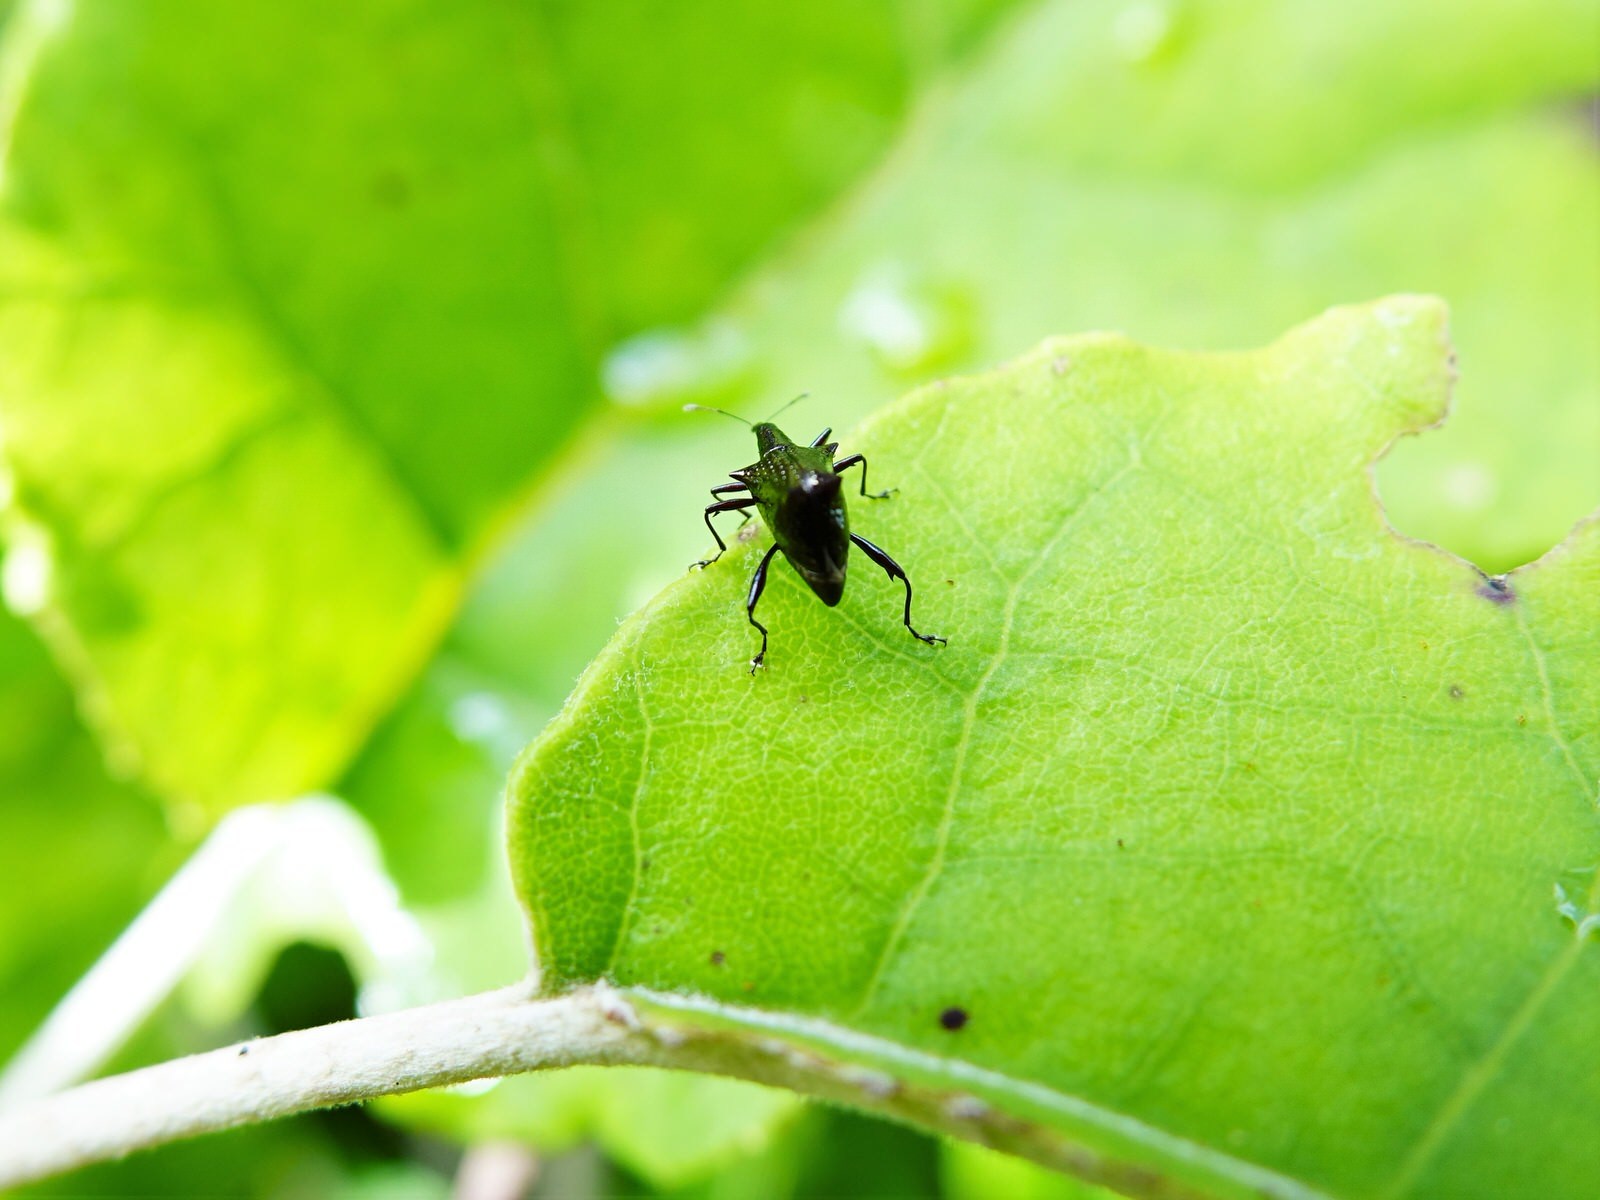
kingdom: Animalia
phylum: Arthropoda
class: Insecta
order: Coleoptera
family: Curculionidae
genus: Scolopterus
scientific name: Scolopterus aequus
